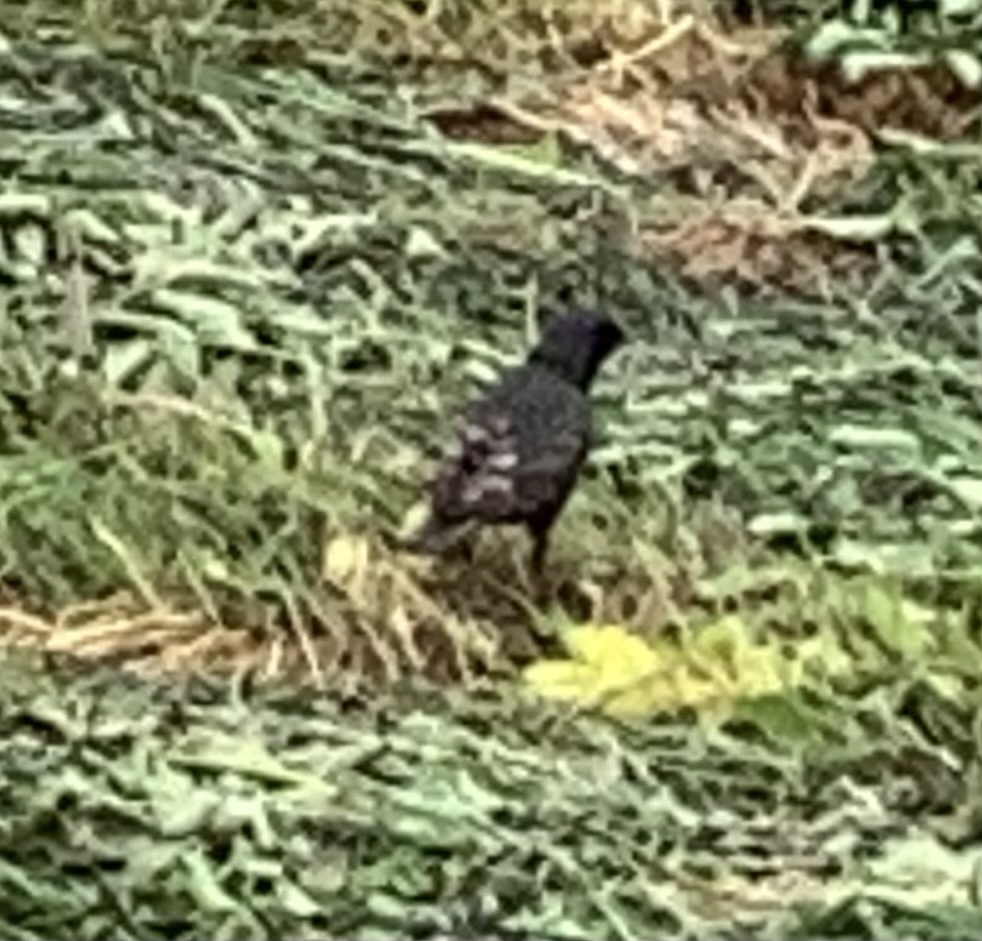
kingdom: Animalia
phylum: Chordata
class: Aves
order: Passeriformes
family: Sturnidae
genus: Sturnus
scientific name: Sturnus vulgaris
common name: Common starling
